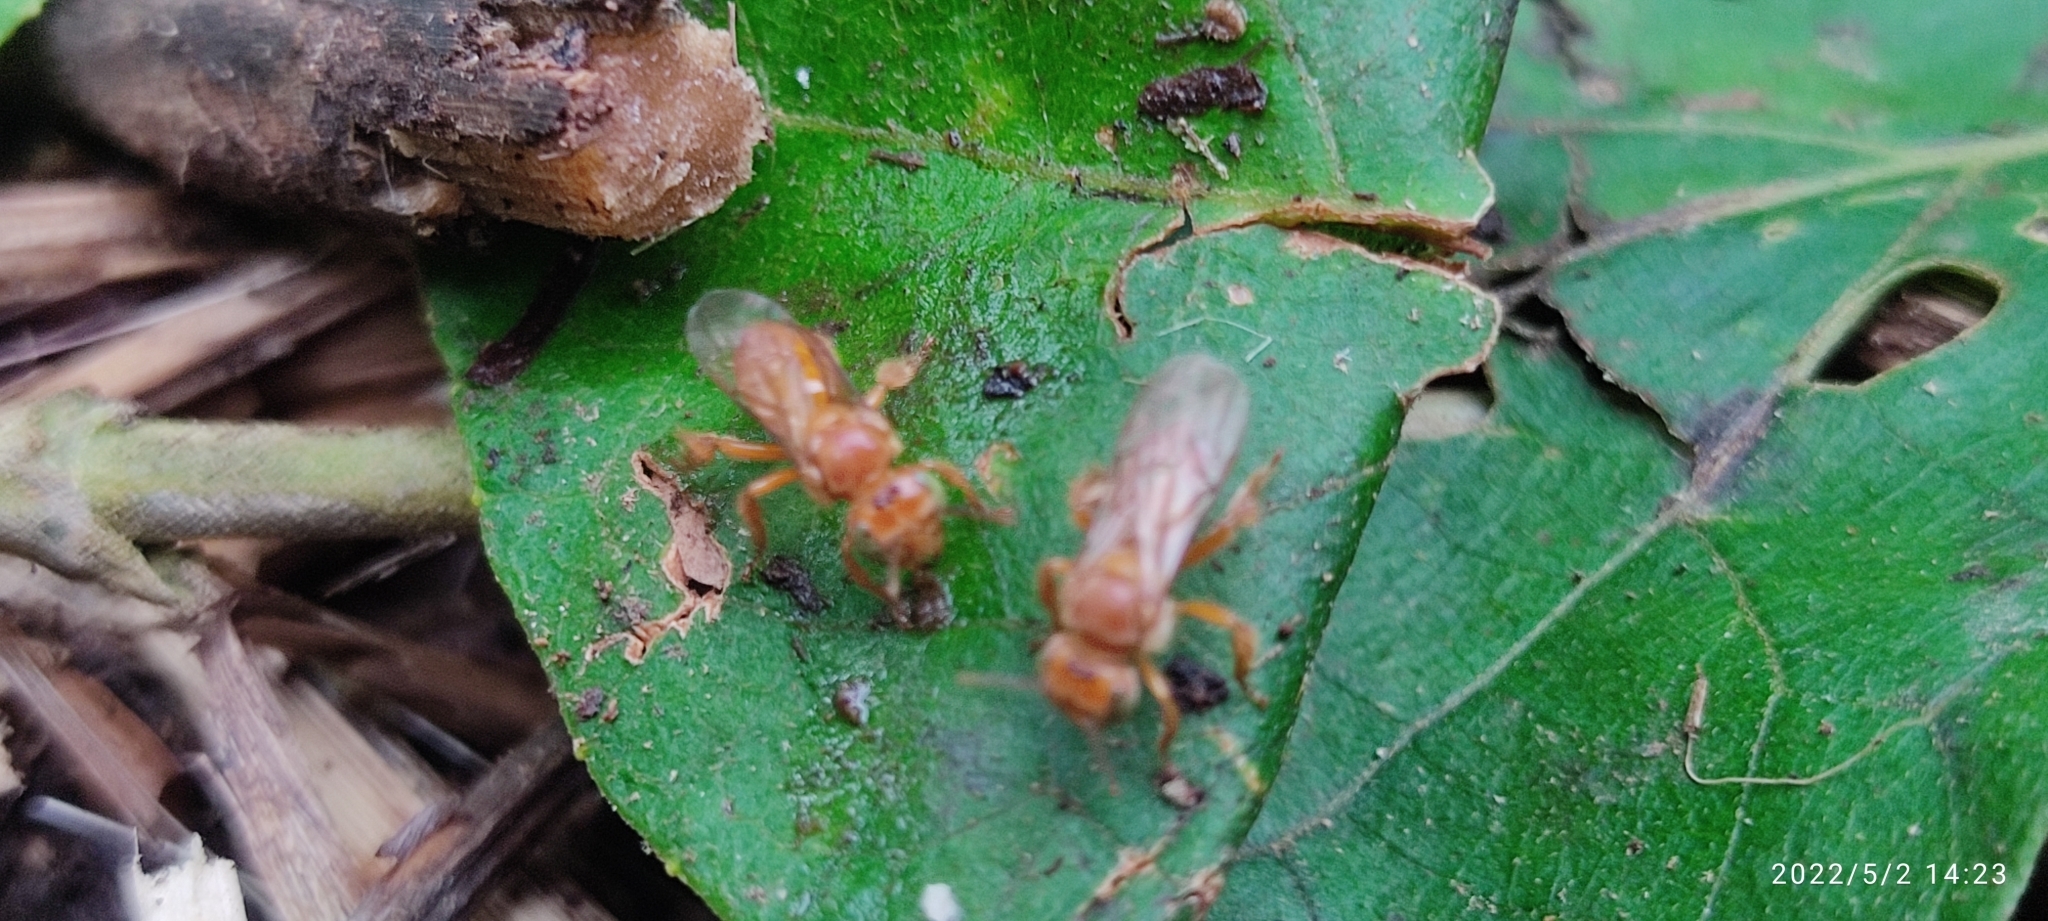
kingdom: Animalia
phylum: Arthropoda
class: Insecta
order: Hymenoptera
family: Apidae
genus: Trigona
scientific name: Trigona pallens
